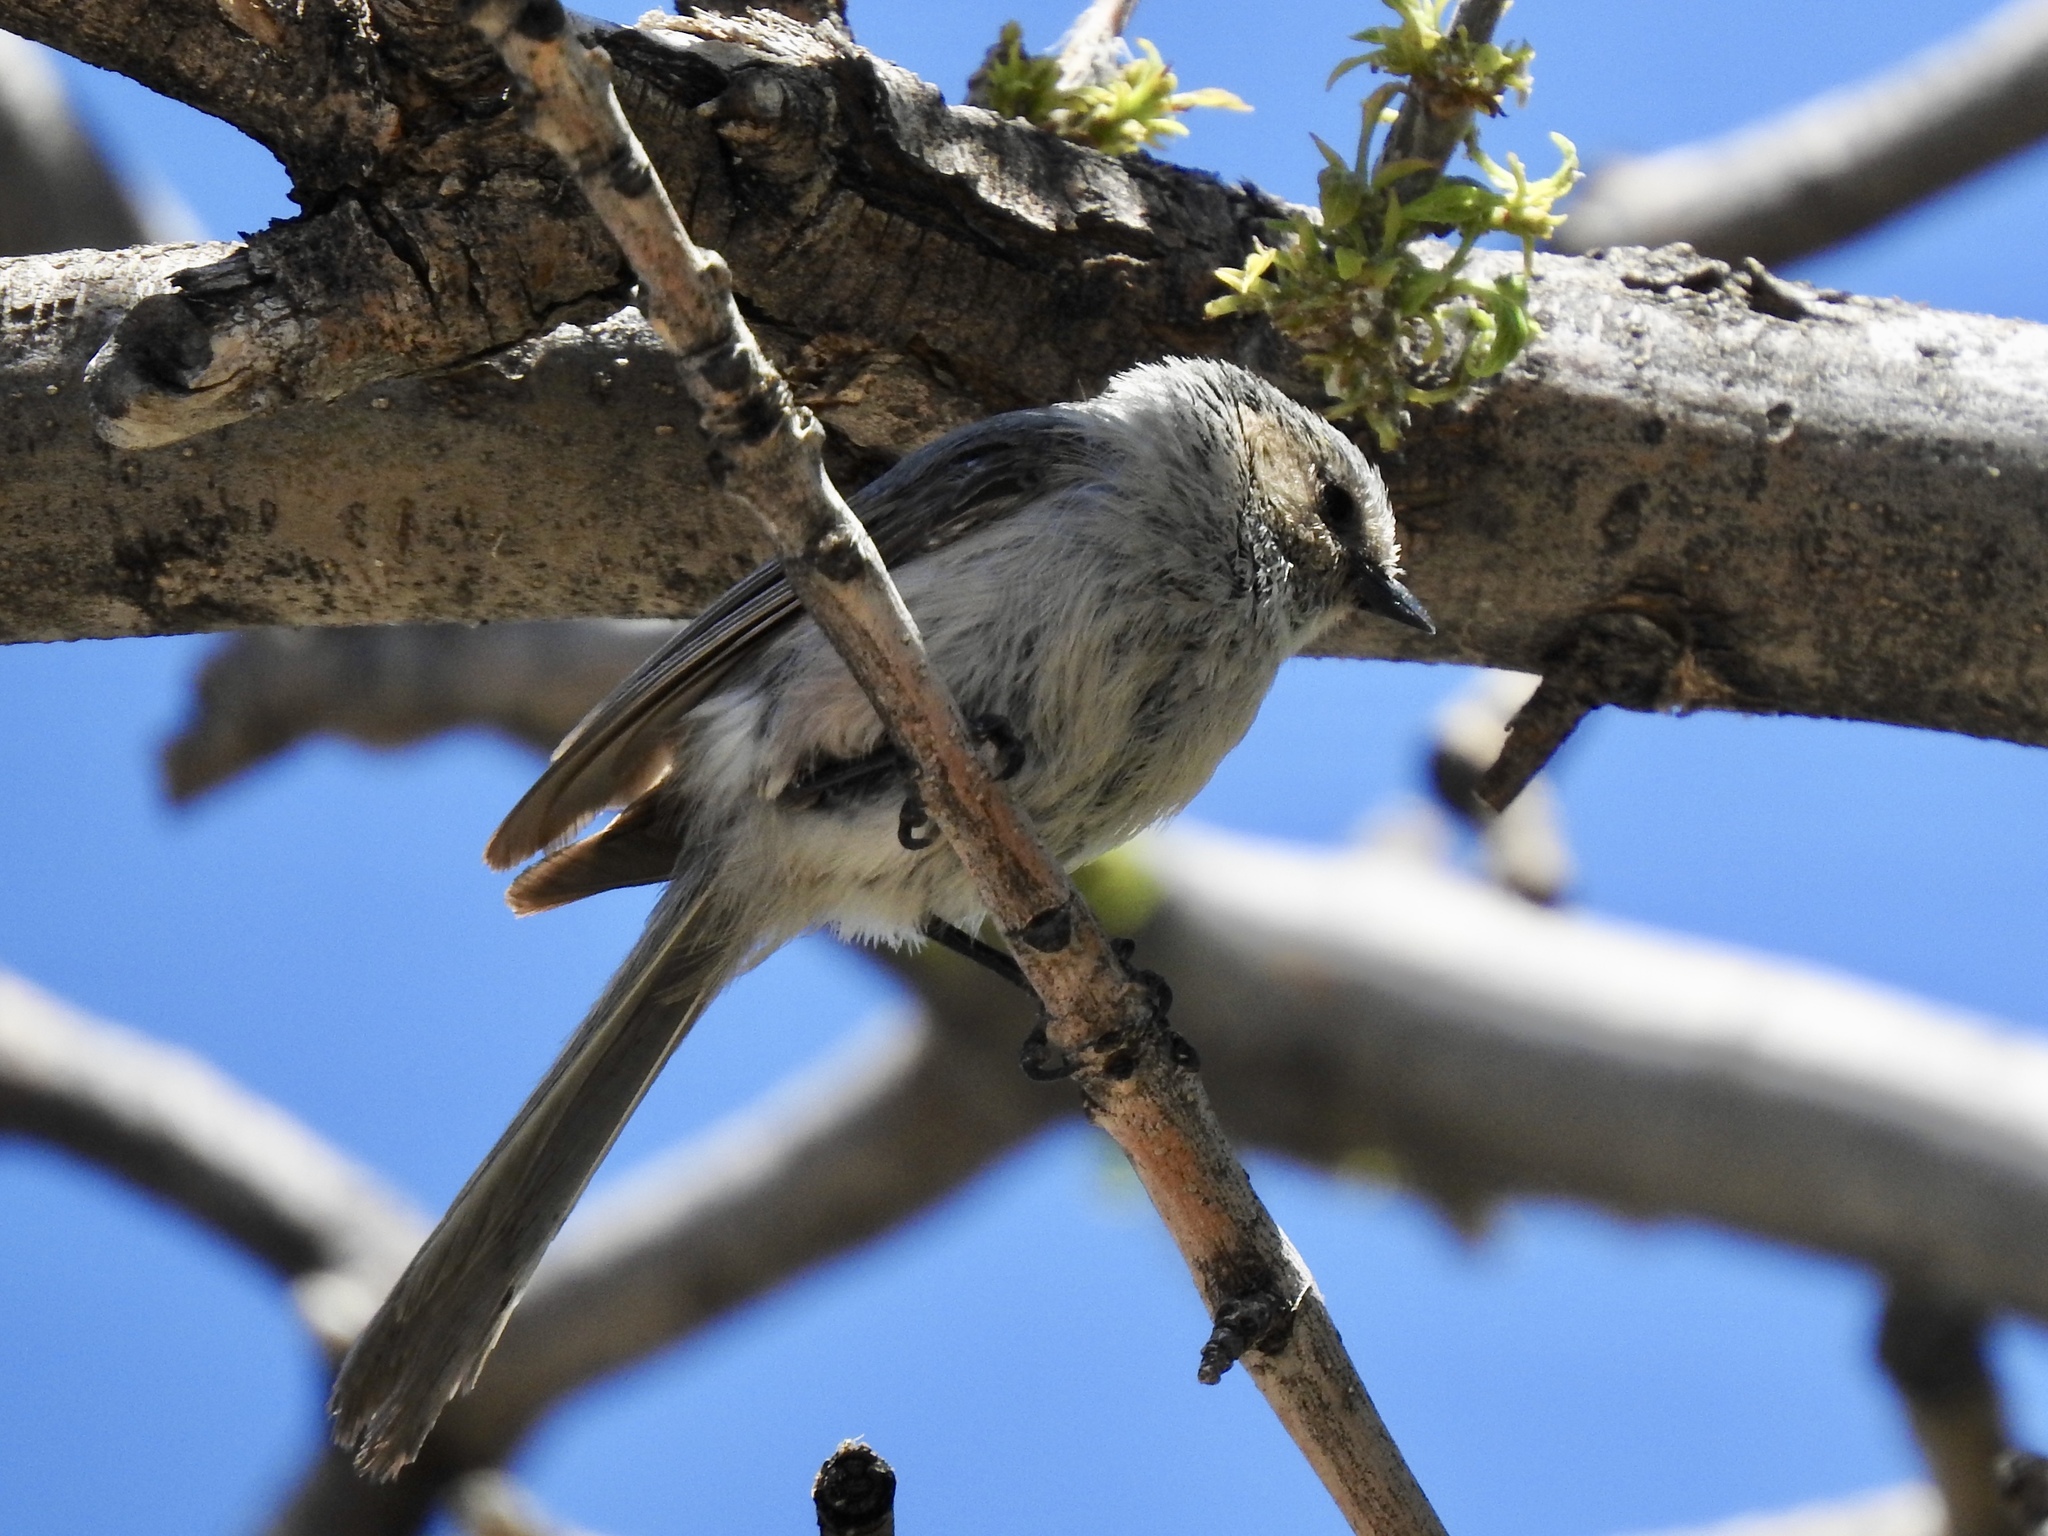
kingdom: Animalia
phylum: Chordata
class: Aves
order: Passeriformes
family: Aegithalidae
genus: Psaltriparus
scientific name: Psaltriparus minimus
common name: American bushtit
